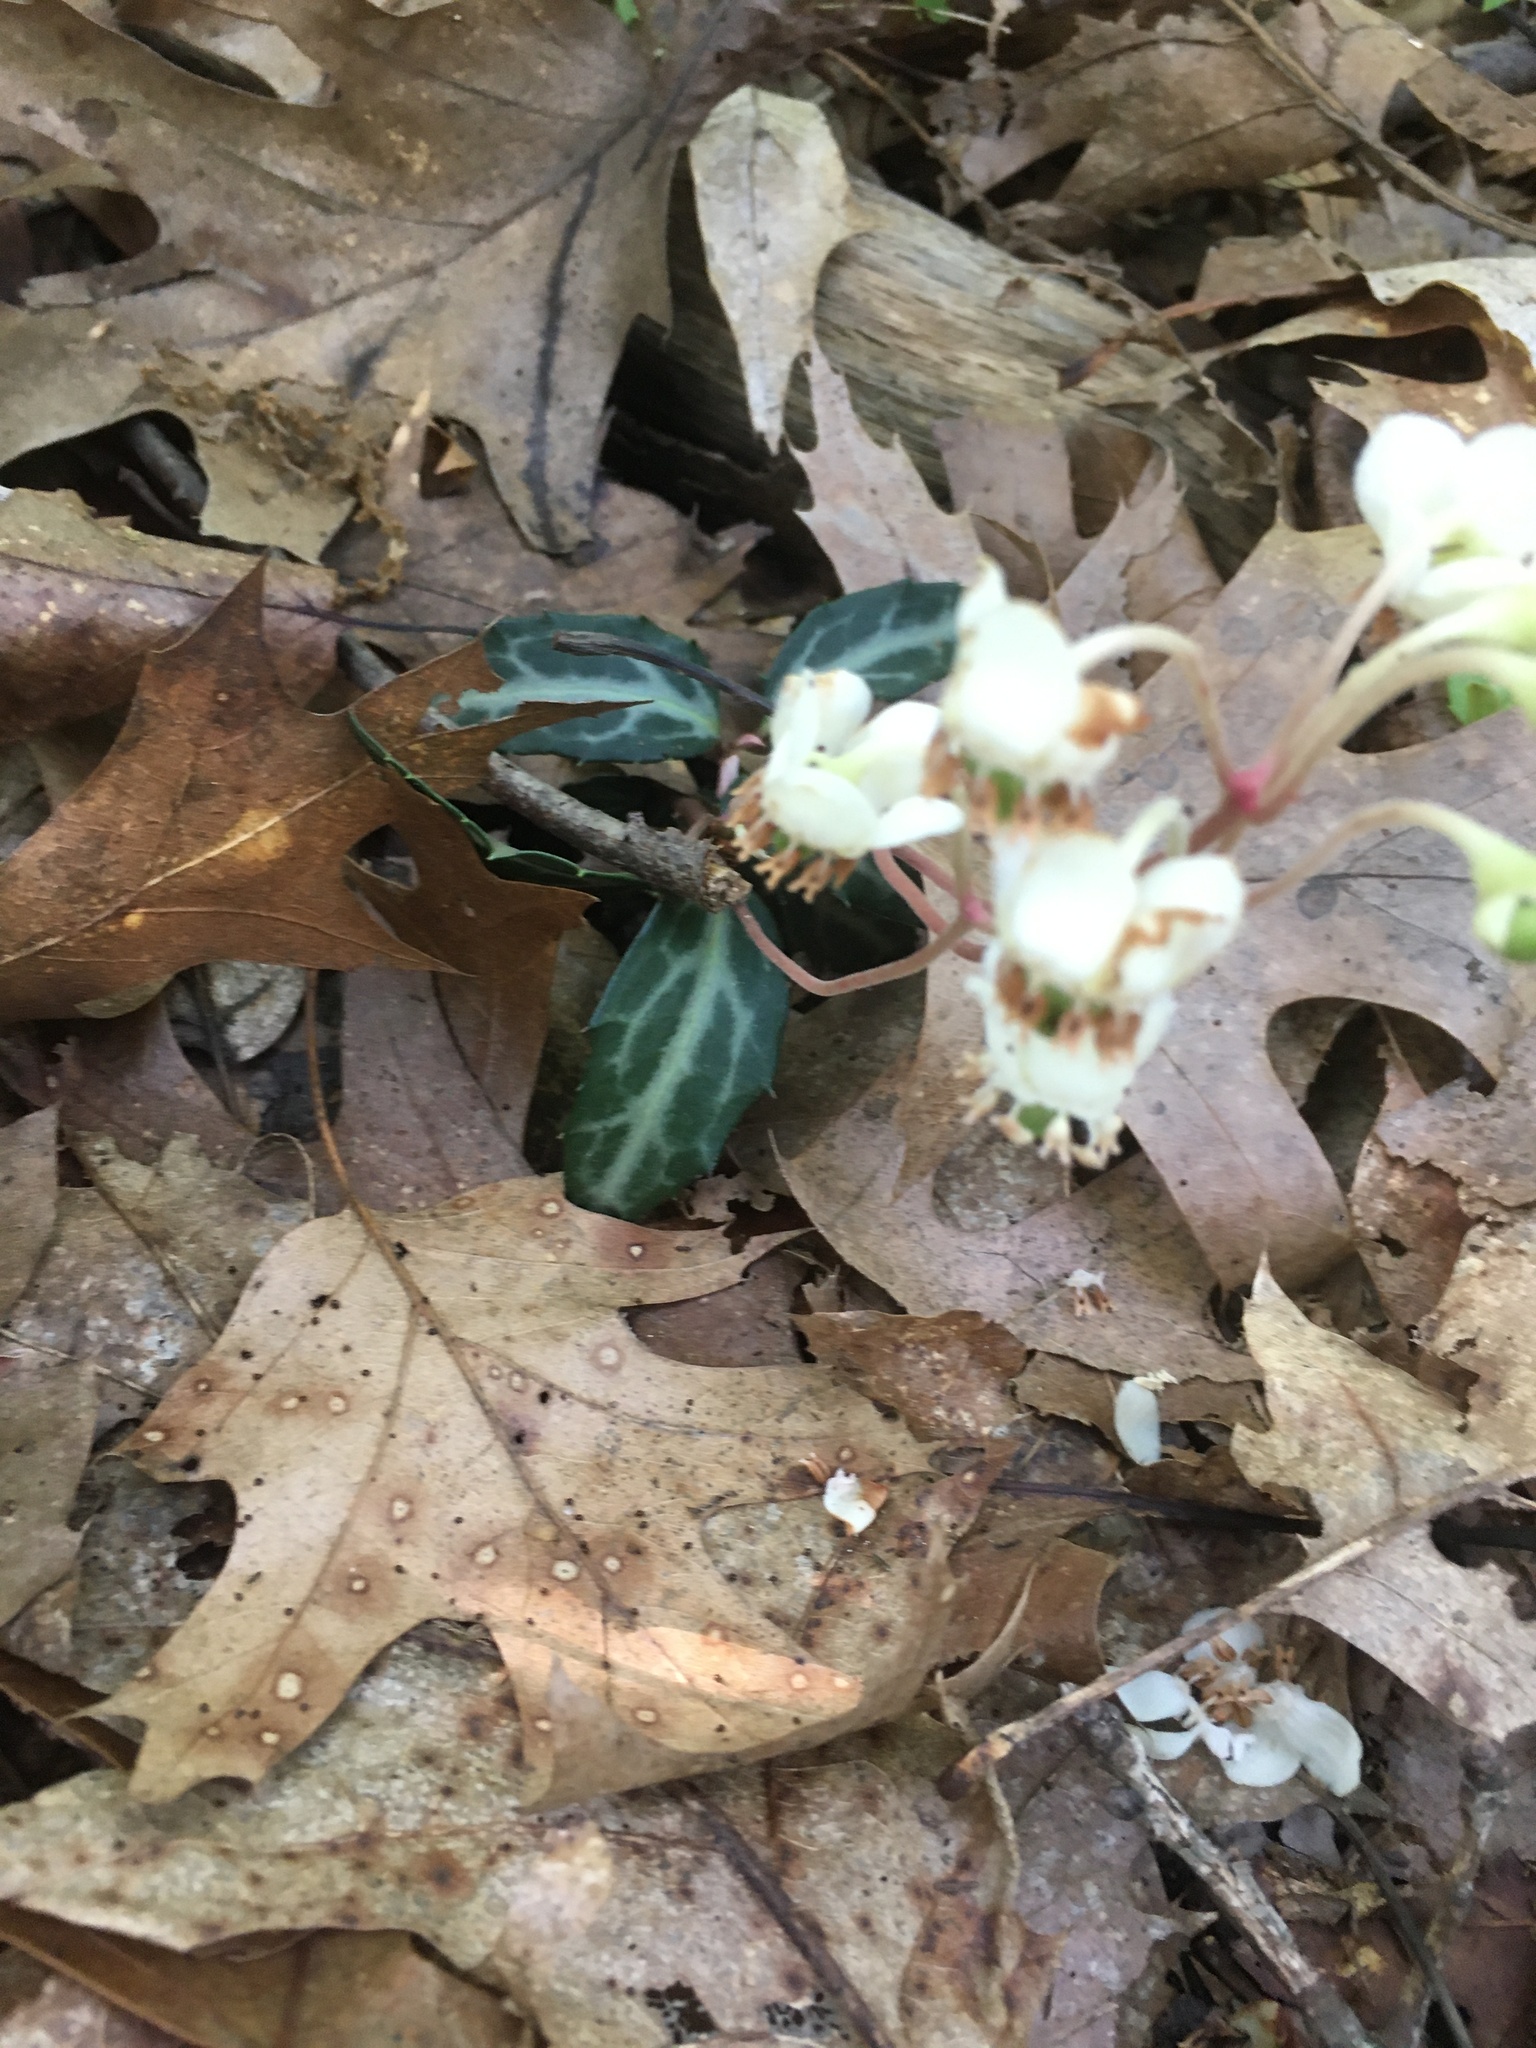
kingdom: Plantae
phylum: Tracheophyta
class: Magnoliopsida
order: Ericales
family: Ericaceae
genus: Chimaphila
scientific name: Chimaphila maculata
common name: Spotted pipsissewa
